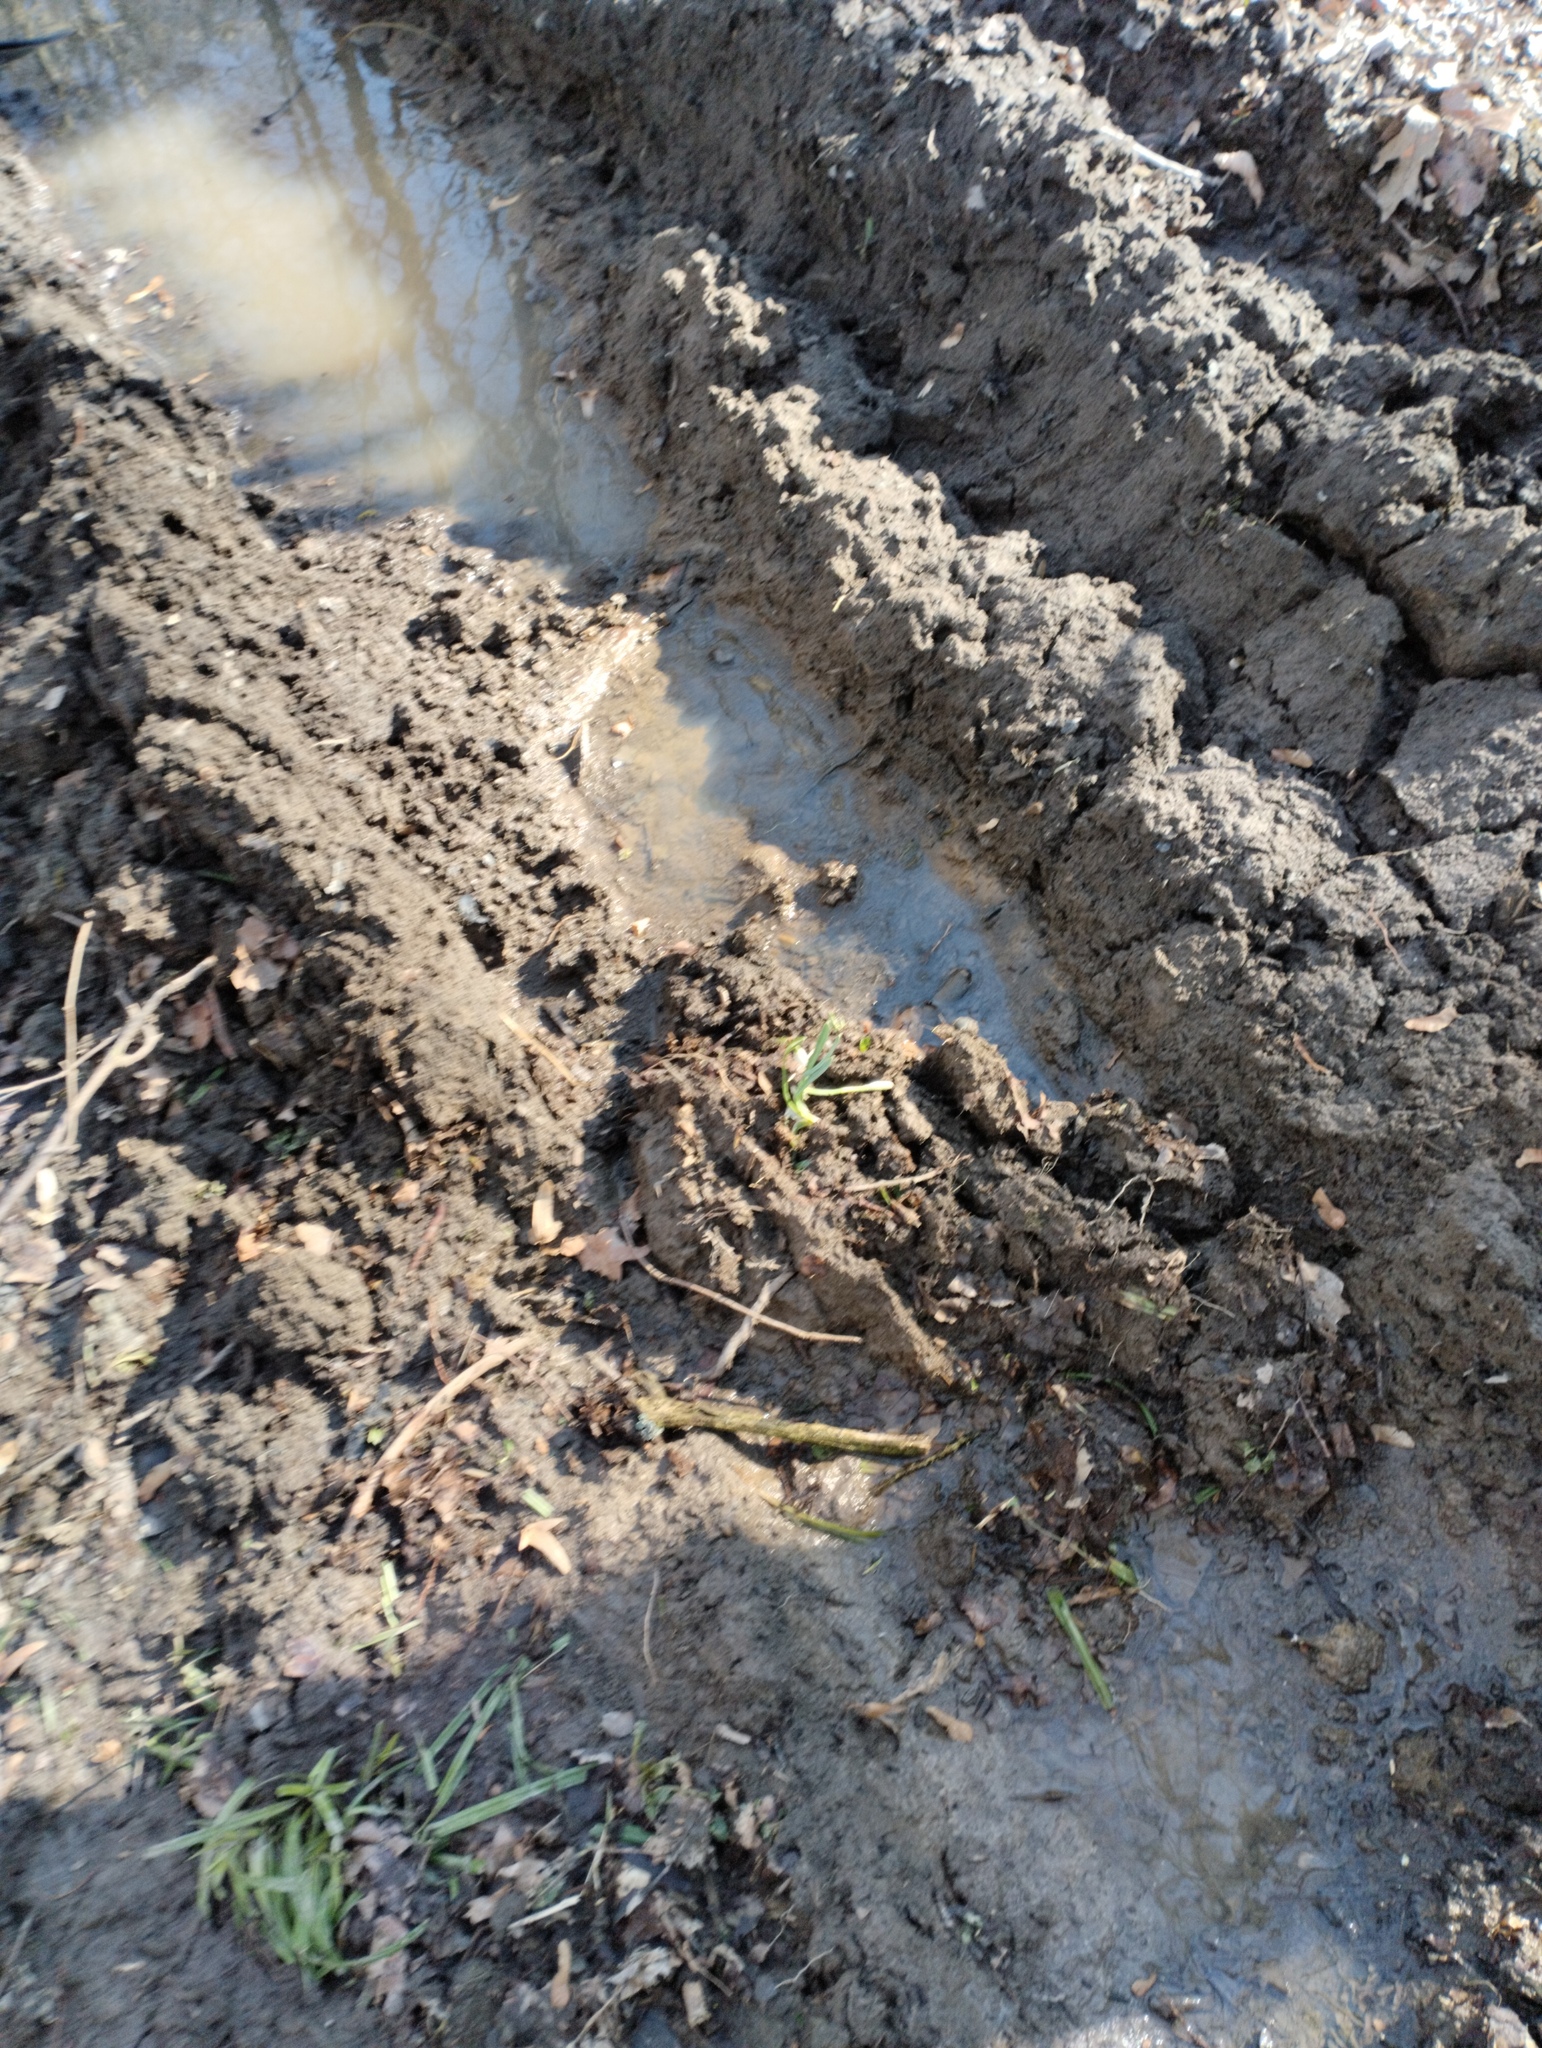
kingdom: Plantae
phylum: Tracheophyta
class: Liliopsida
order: Asparagales
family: Amaryllidaceae
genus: Galanthus
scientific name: Galanthus nivalis
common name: Snowdrop
